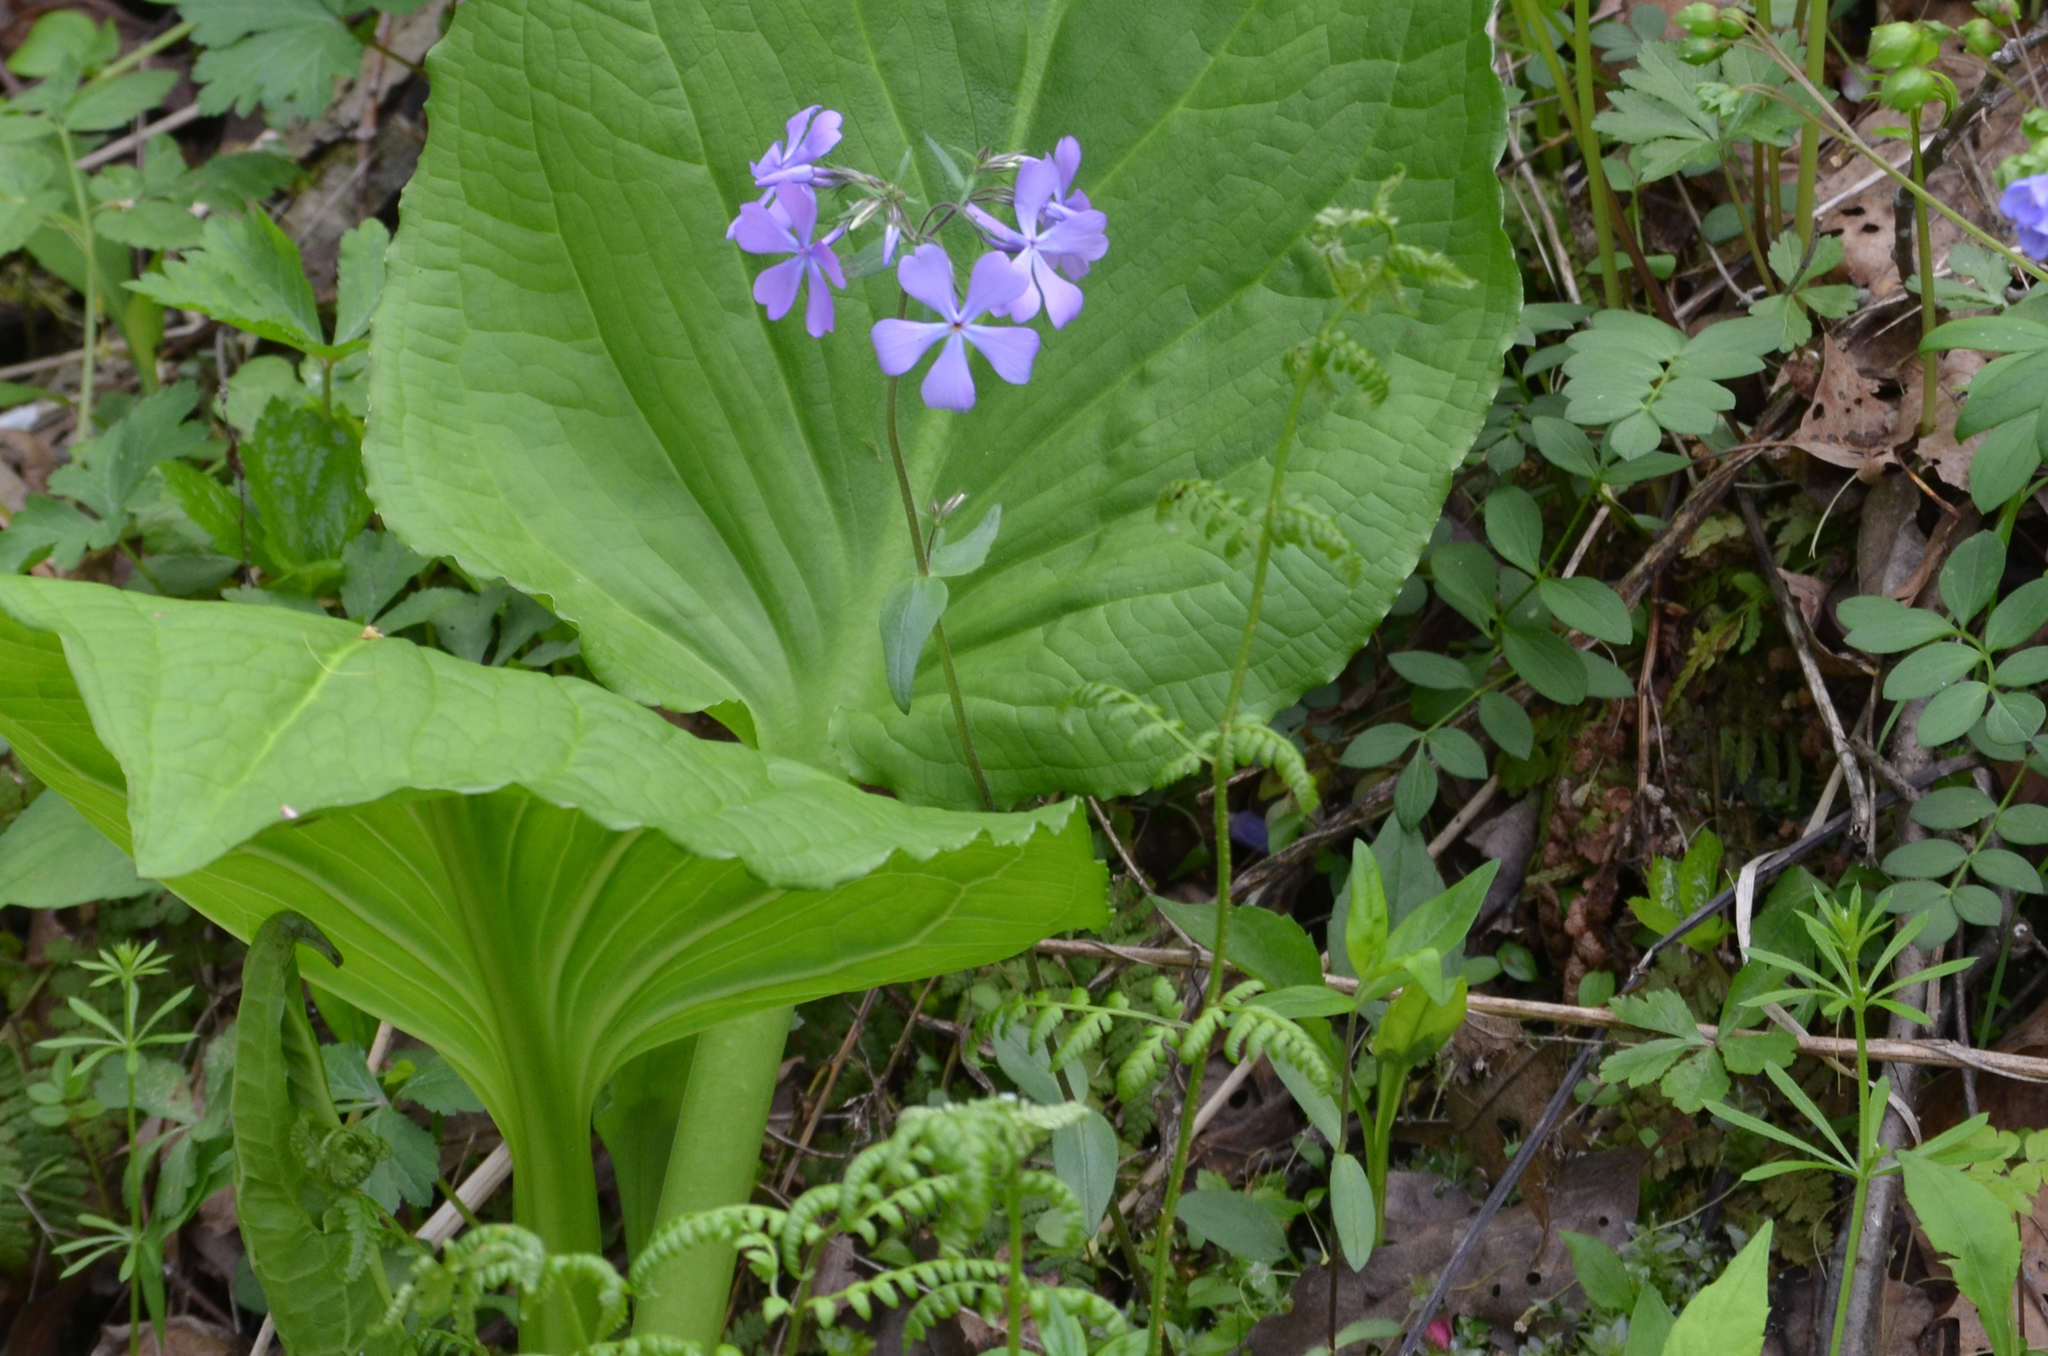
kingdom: Plantae
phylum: Tracheophyta
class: Magnoliopsida
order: Ericales
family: Polemoniaceae
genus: Phlox
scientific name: Phlox divaricata
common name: Blue phlox
